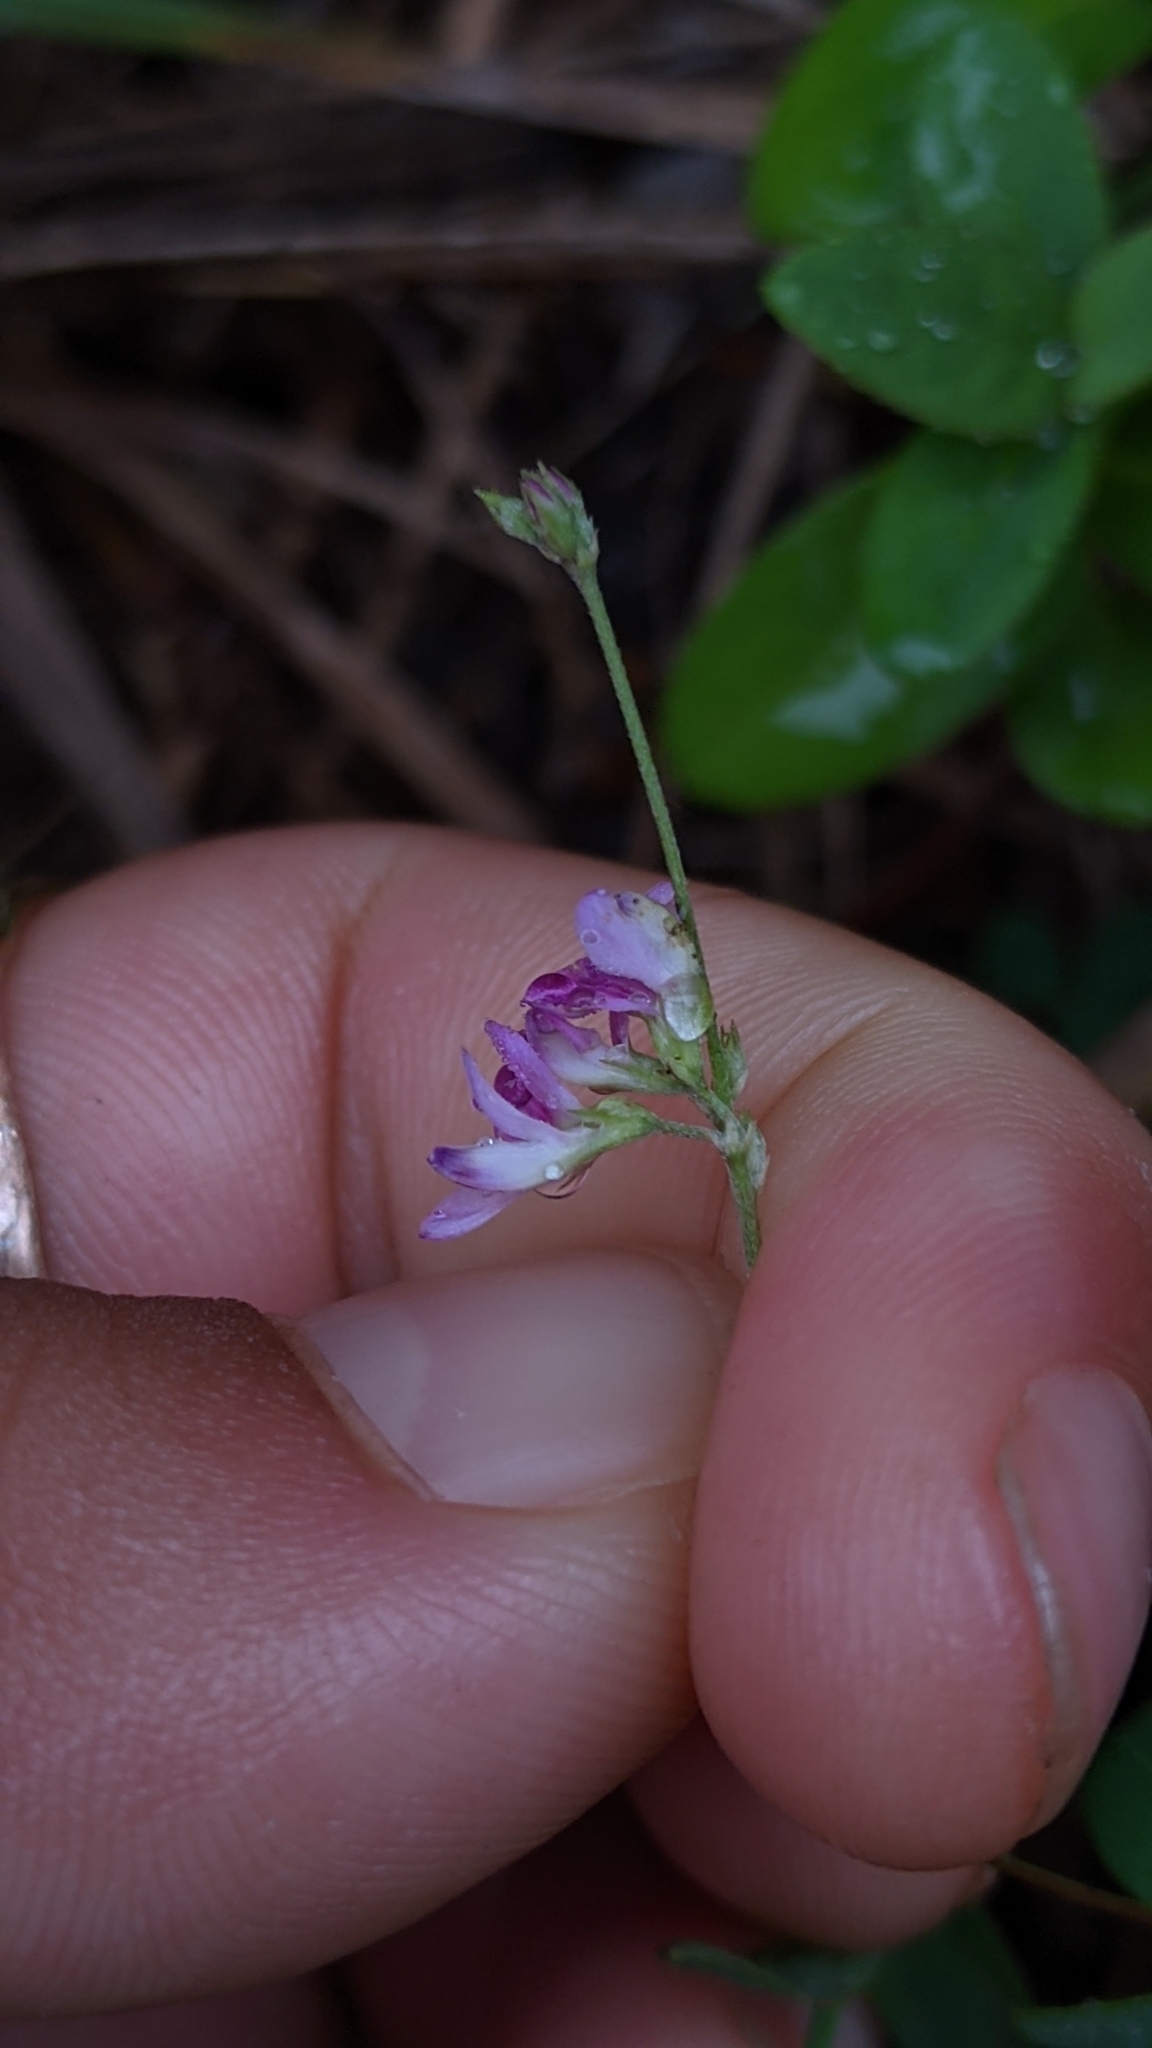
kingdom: Plantae
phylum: Tracheophyta
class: Magnoliopsida
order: Fabales
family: Fabaceae
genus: Lespedeza
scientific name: Lespedeza procumbens
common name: Downy trailing bush-clover
